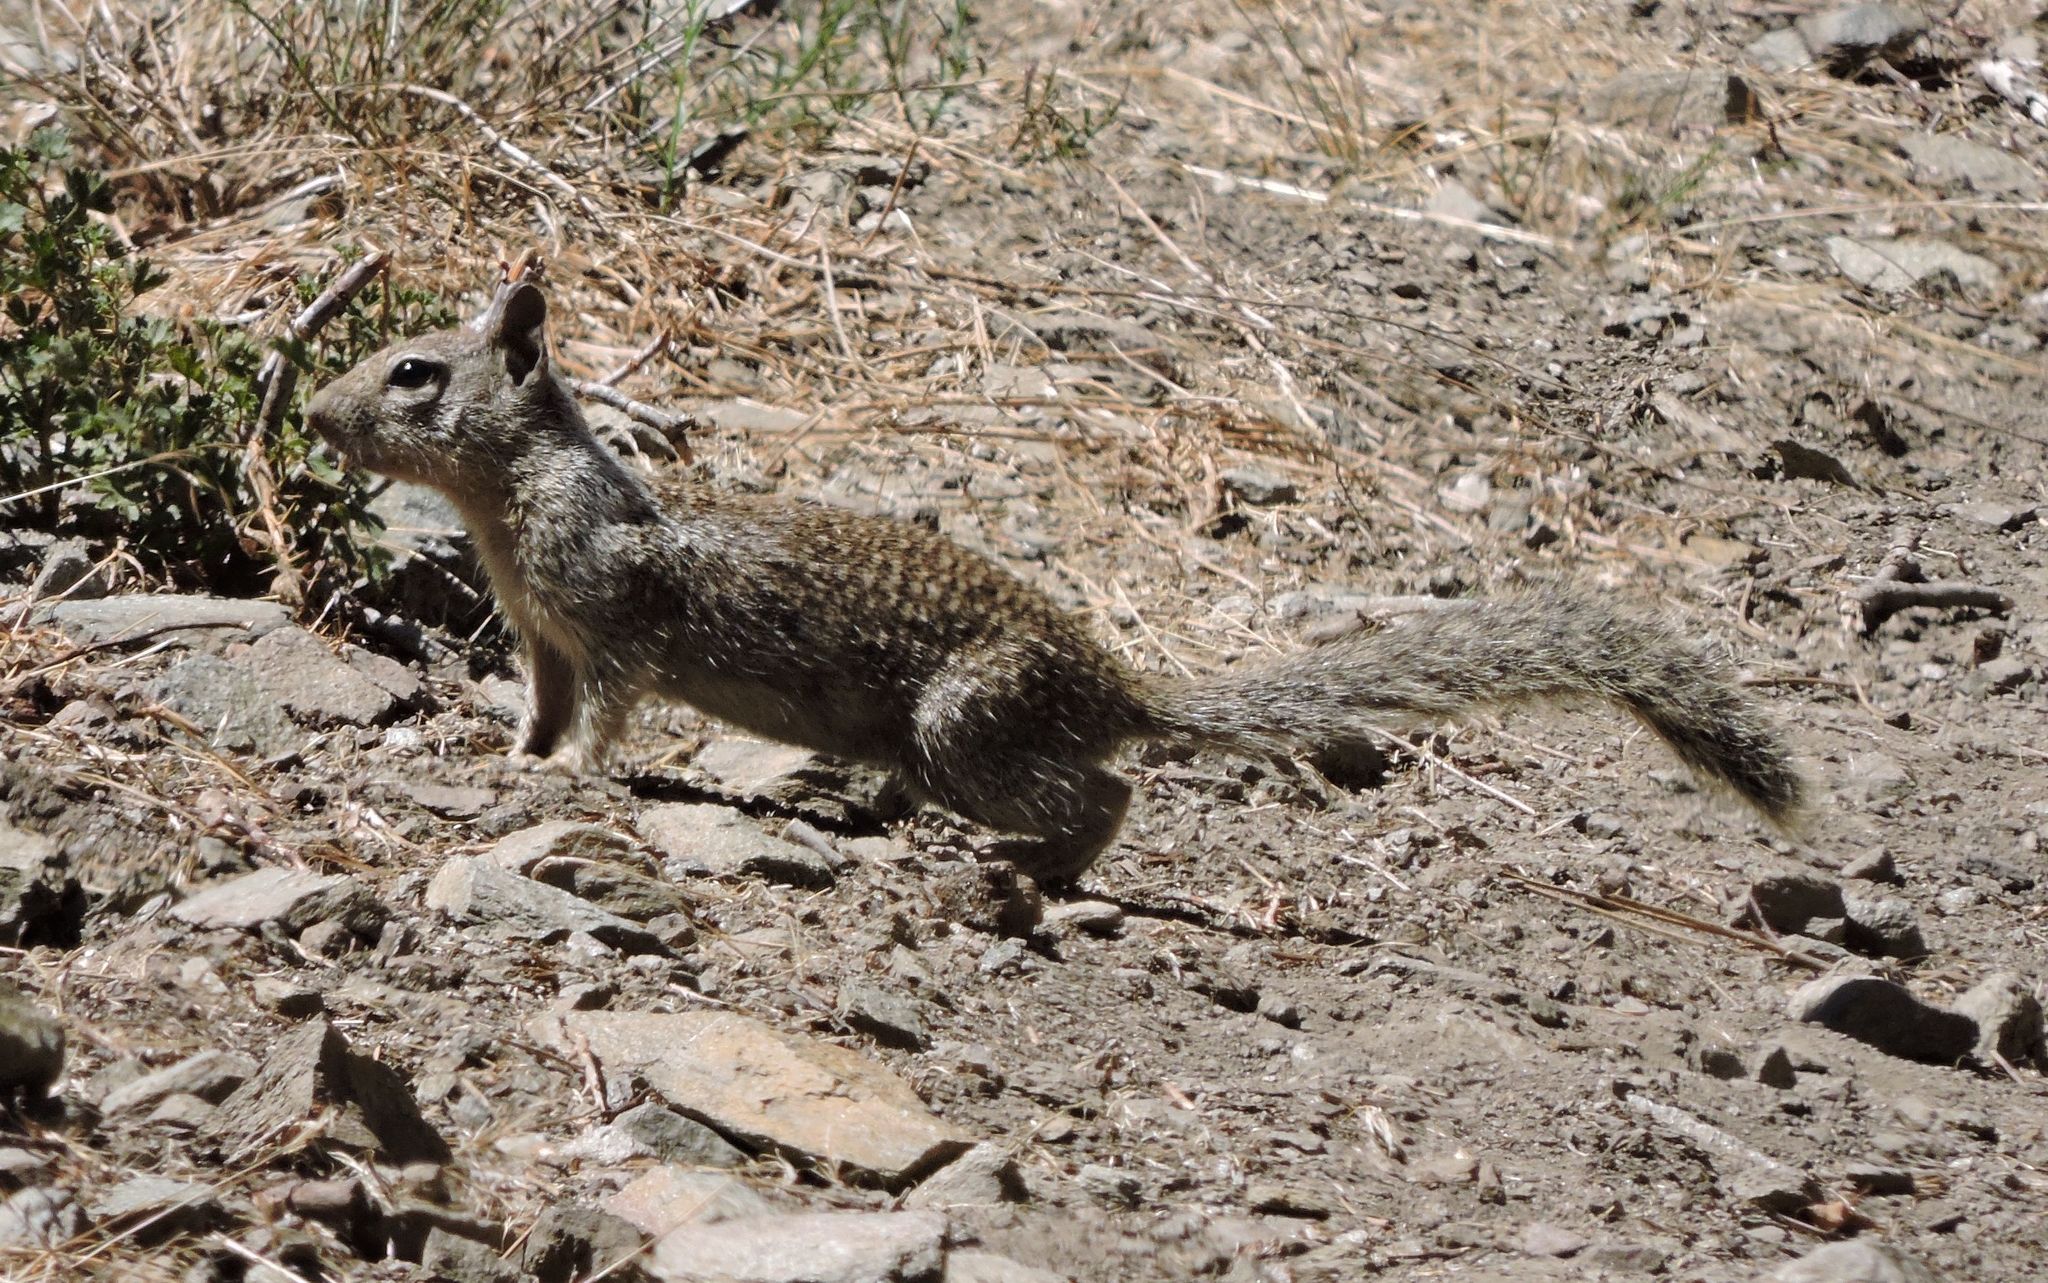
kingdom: Animalia
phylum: Chordata
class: Mammalia
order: Rodentia
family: Sciuridae
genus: Otospermophilus
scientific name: Otospermophilus beecheyi
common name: California ground squirrel
